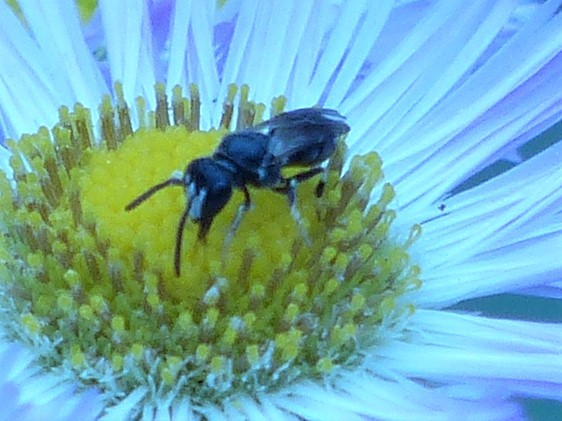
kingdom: Animalia
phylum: Arthropoda
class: Insecta
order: Hymenoptera
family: Colletidae
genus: Hylaeus
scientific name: Hylaeus leptocephalus
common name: Slender-faced masked bee
